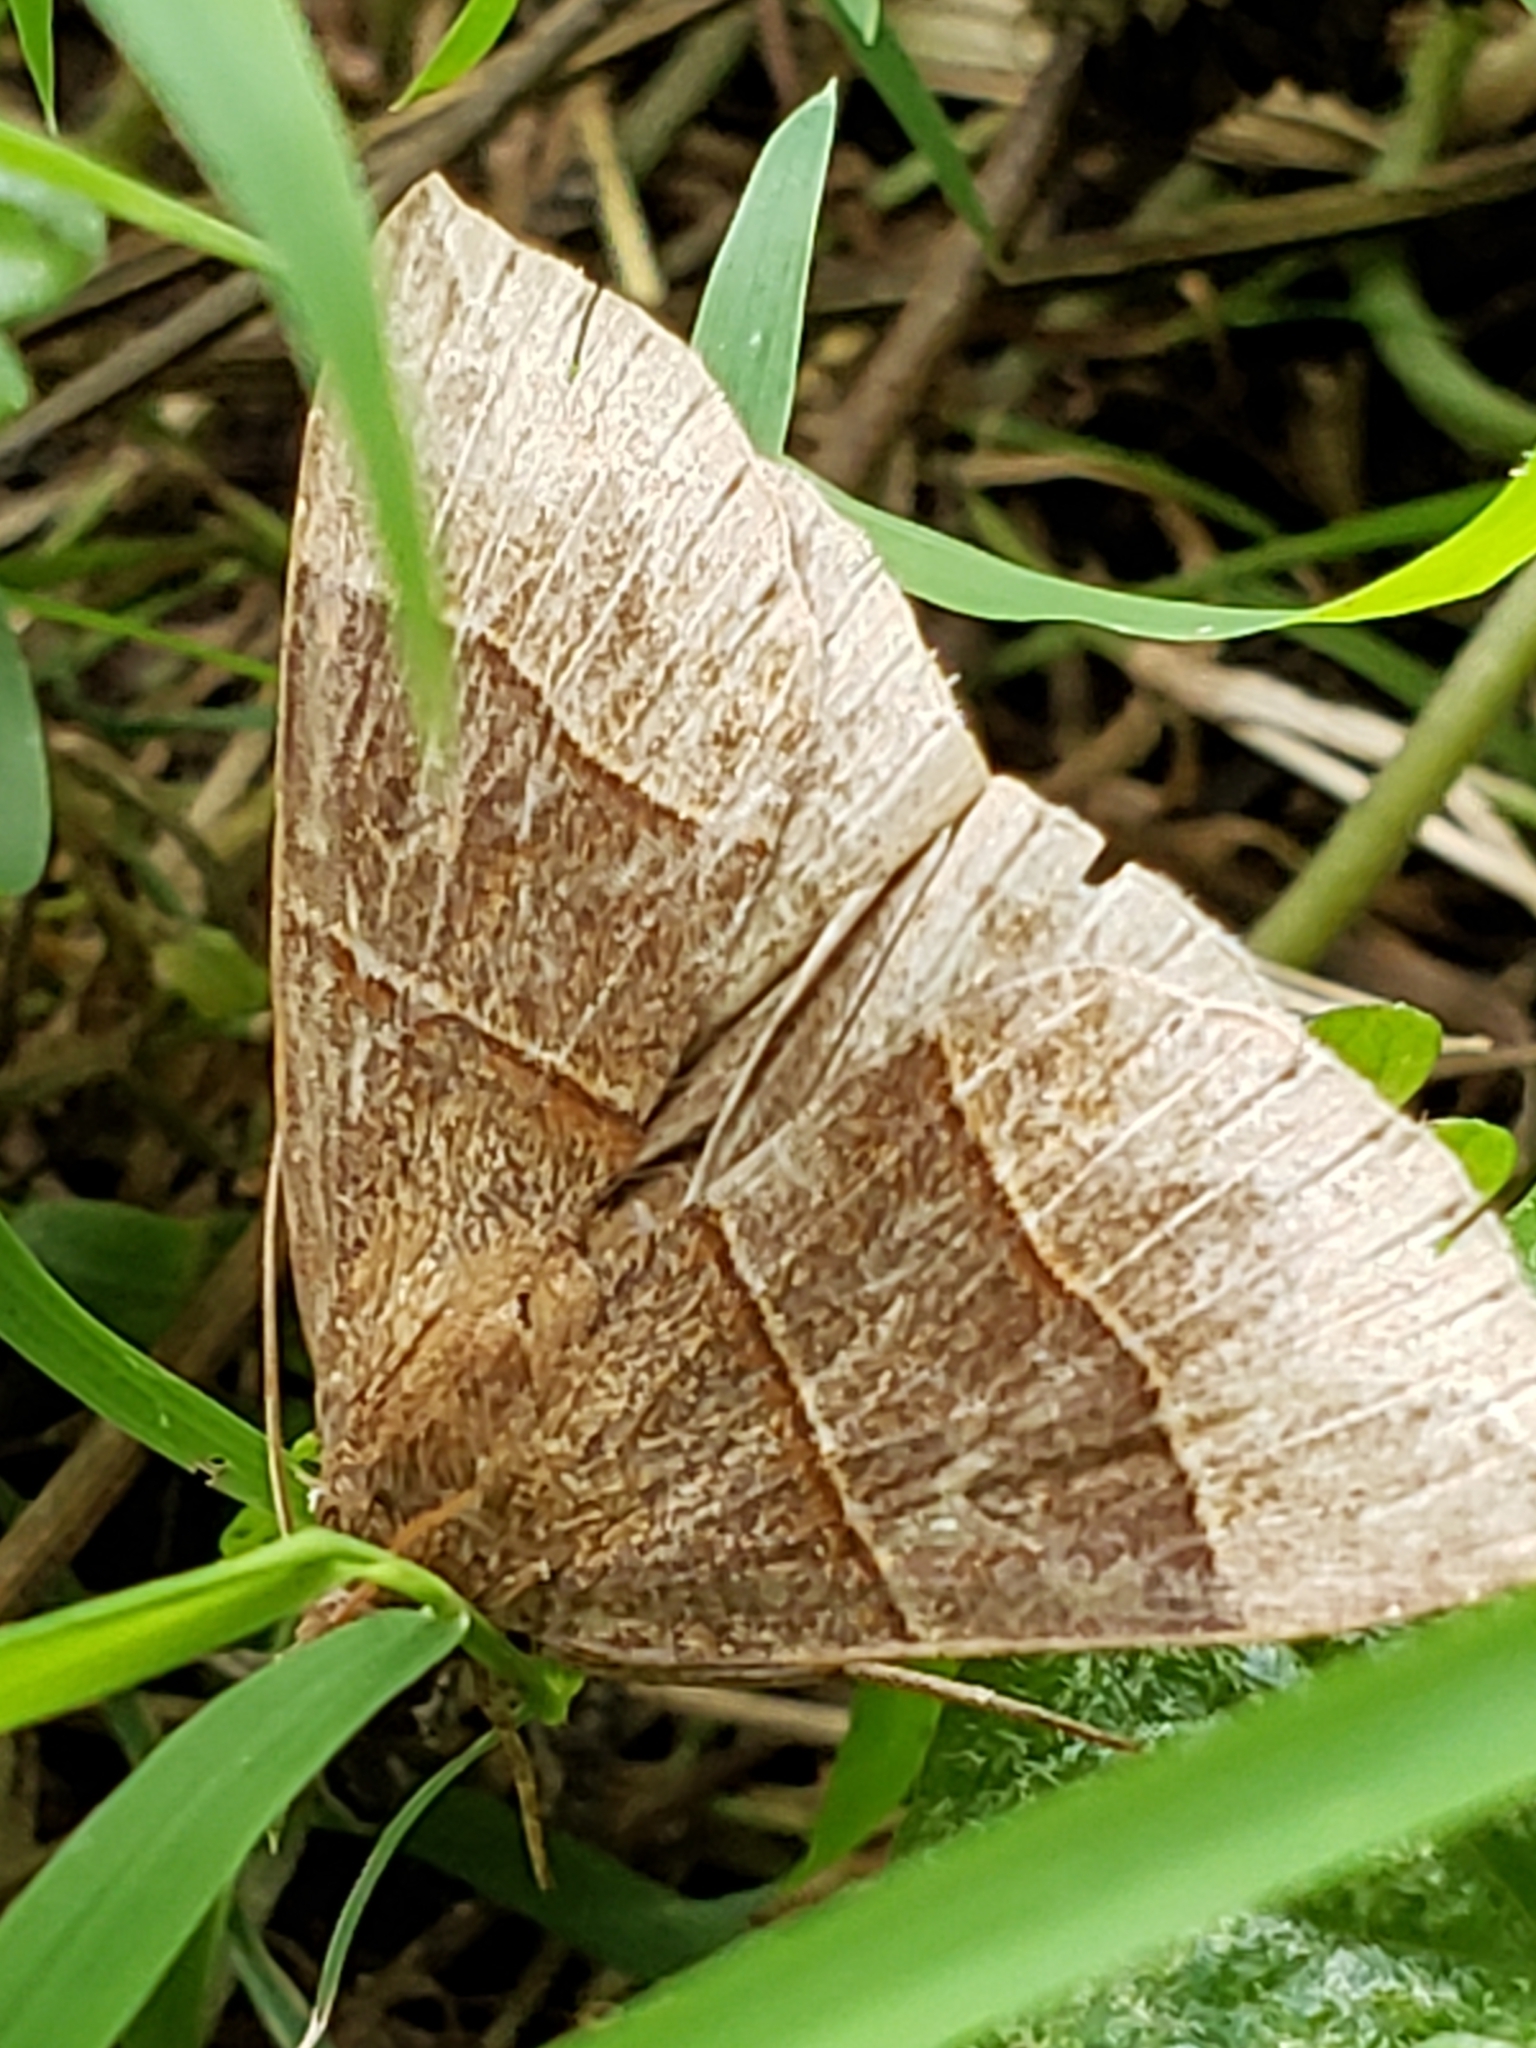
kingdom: Animalia
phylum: Arthropoda
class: Insecta
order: Lepidoptera
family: Erebidae
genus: Parallelia
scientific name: Parallelia bistriaris
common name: Maple looper moth
